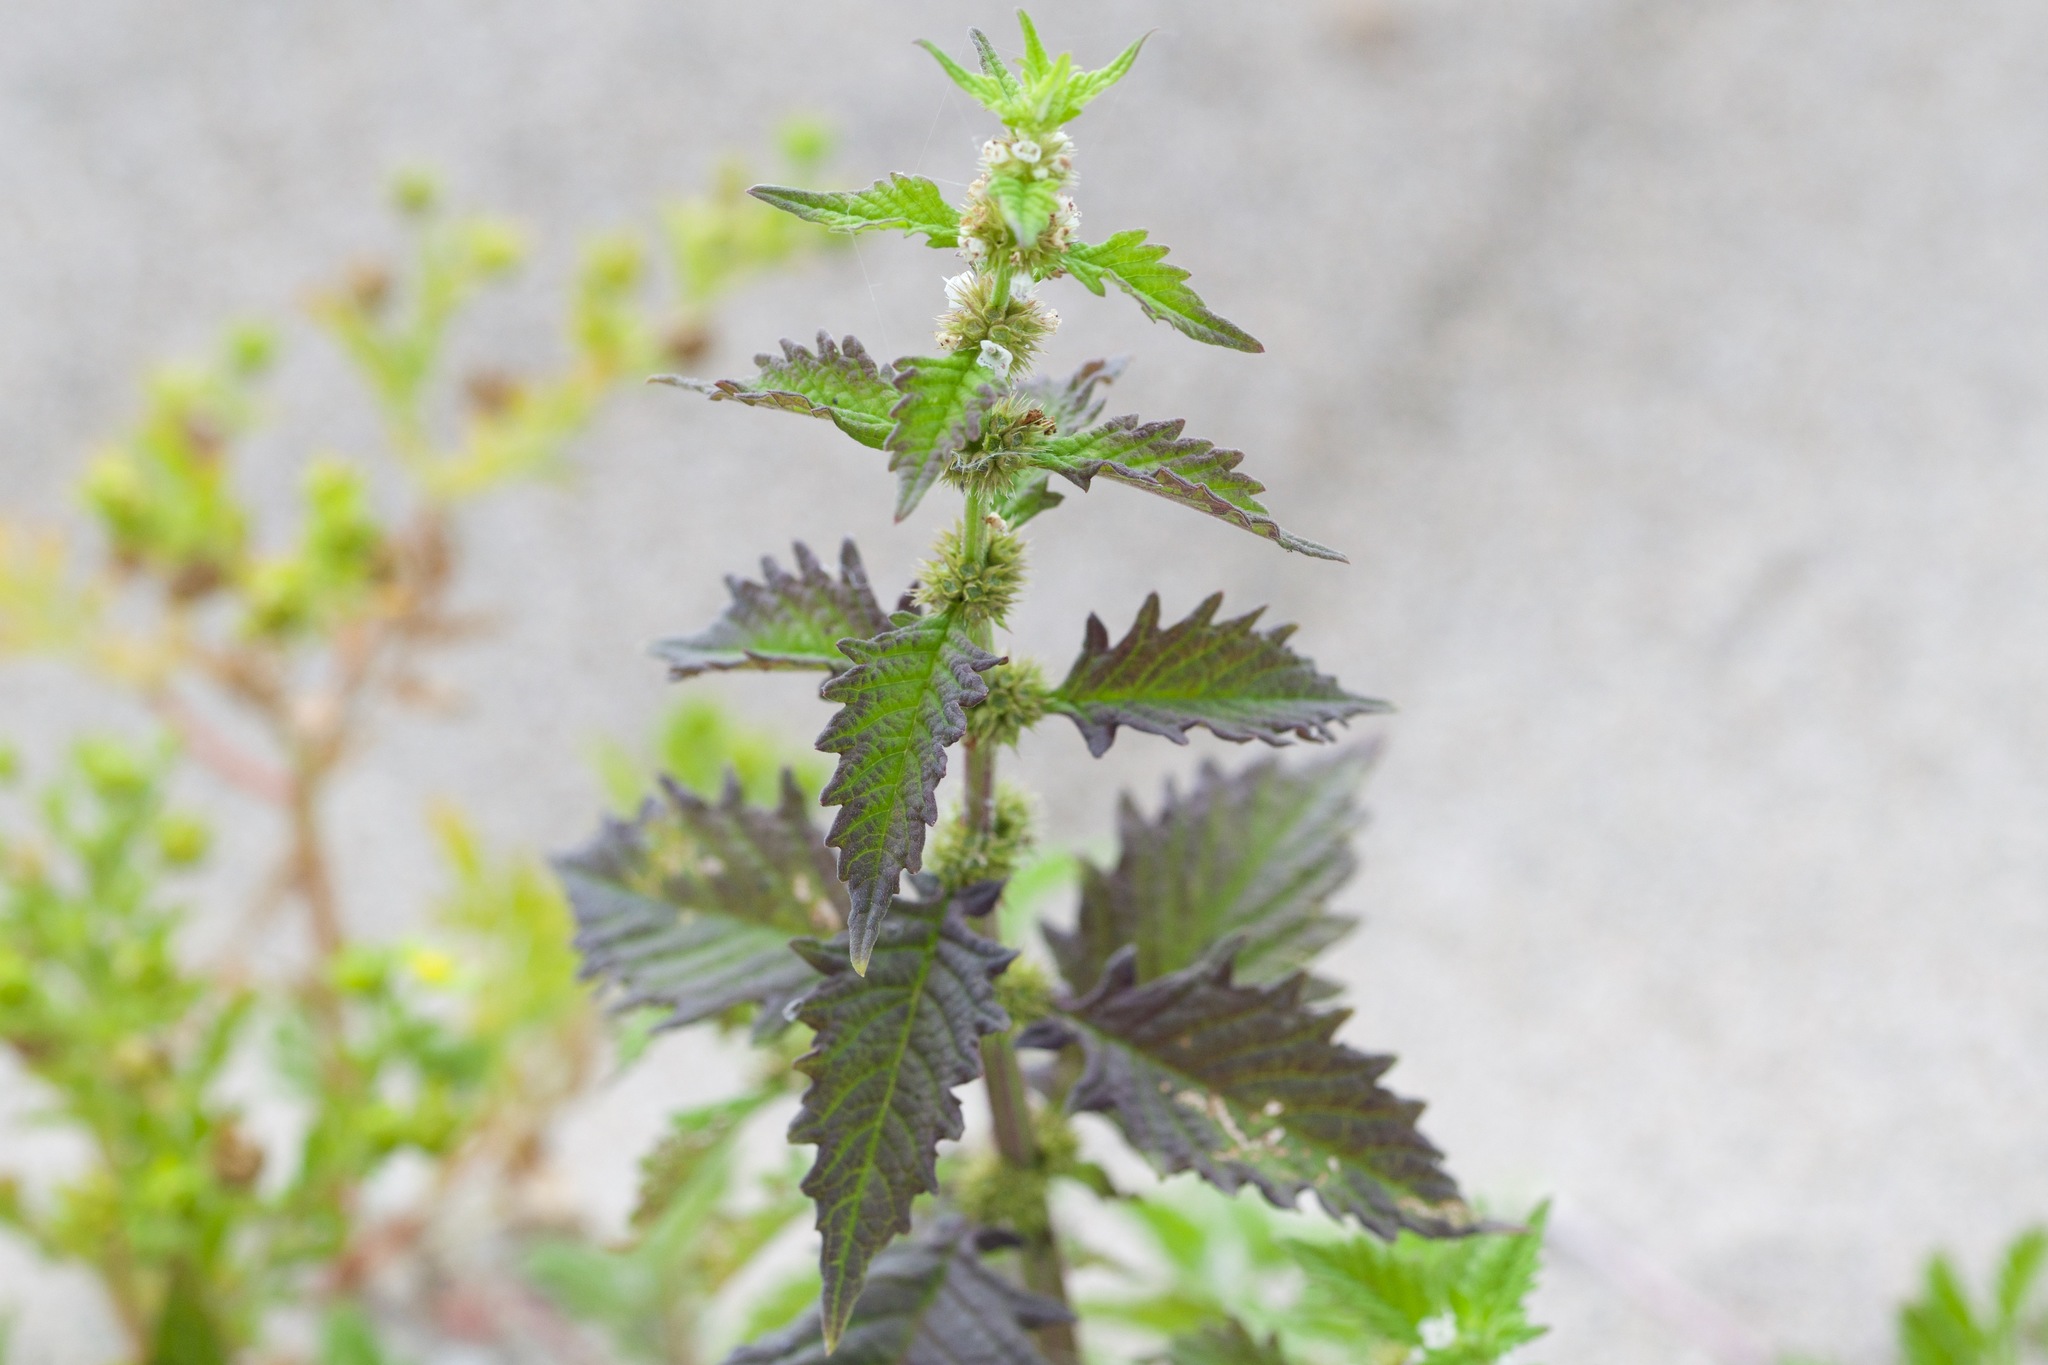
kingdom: Plantae
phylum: Tracheophyta
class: Magnoliopsida
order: Lamiales
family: Lamiaceae
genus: Lycopus
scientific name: Lycopus europaeus
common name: European bugleweed
